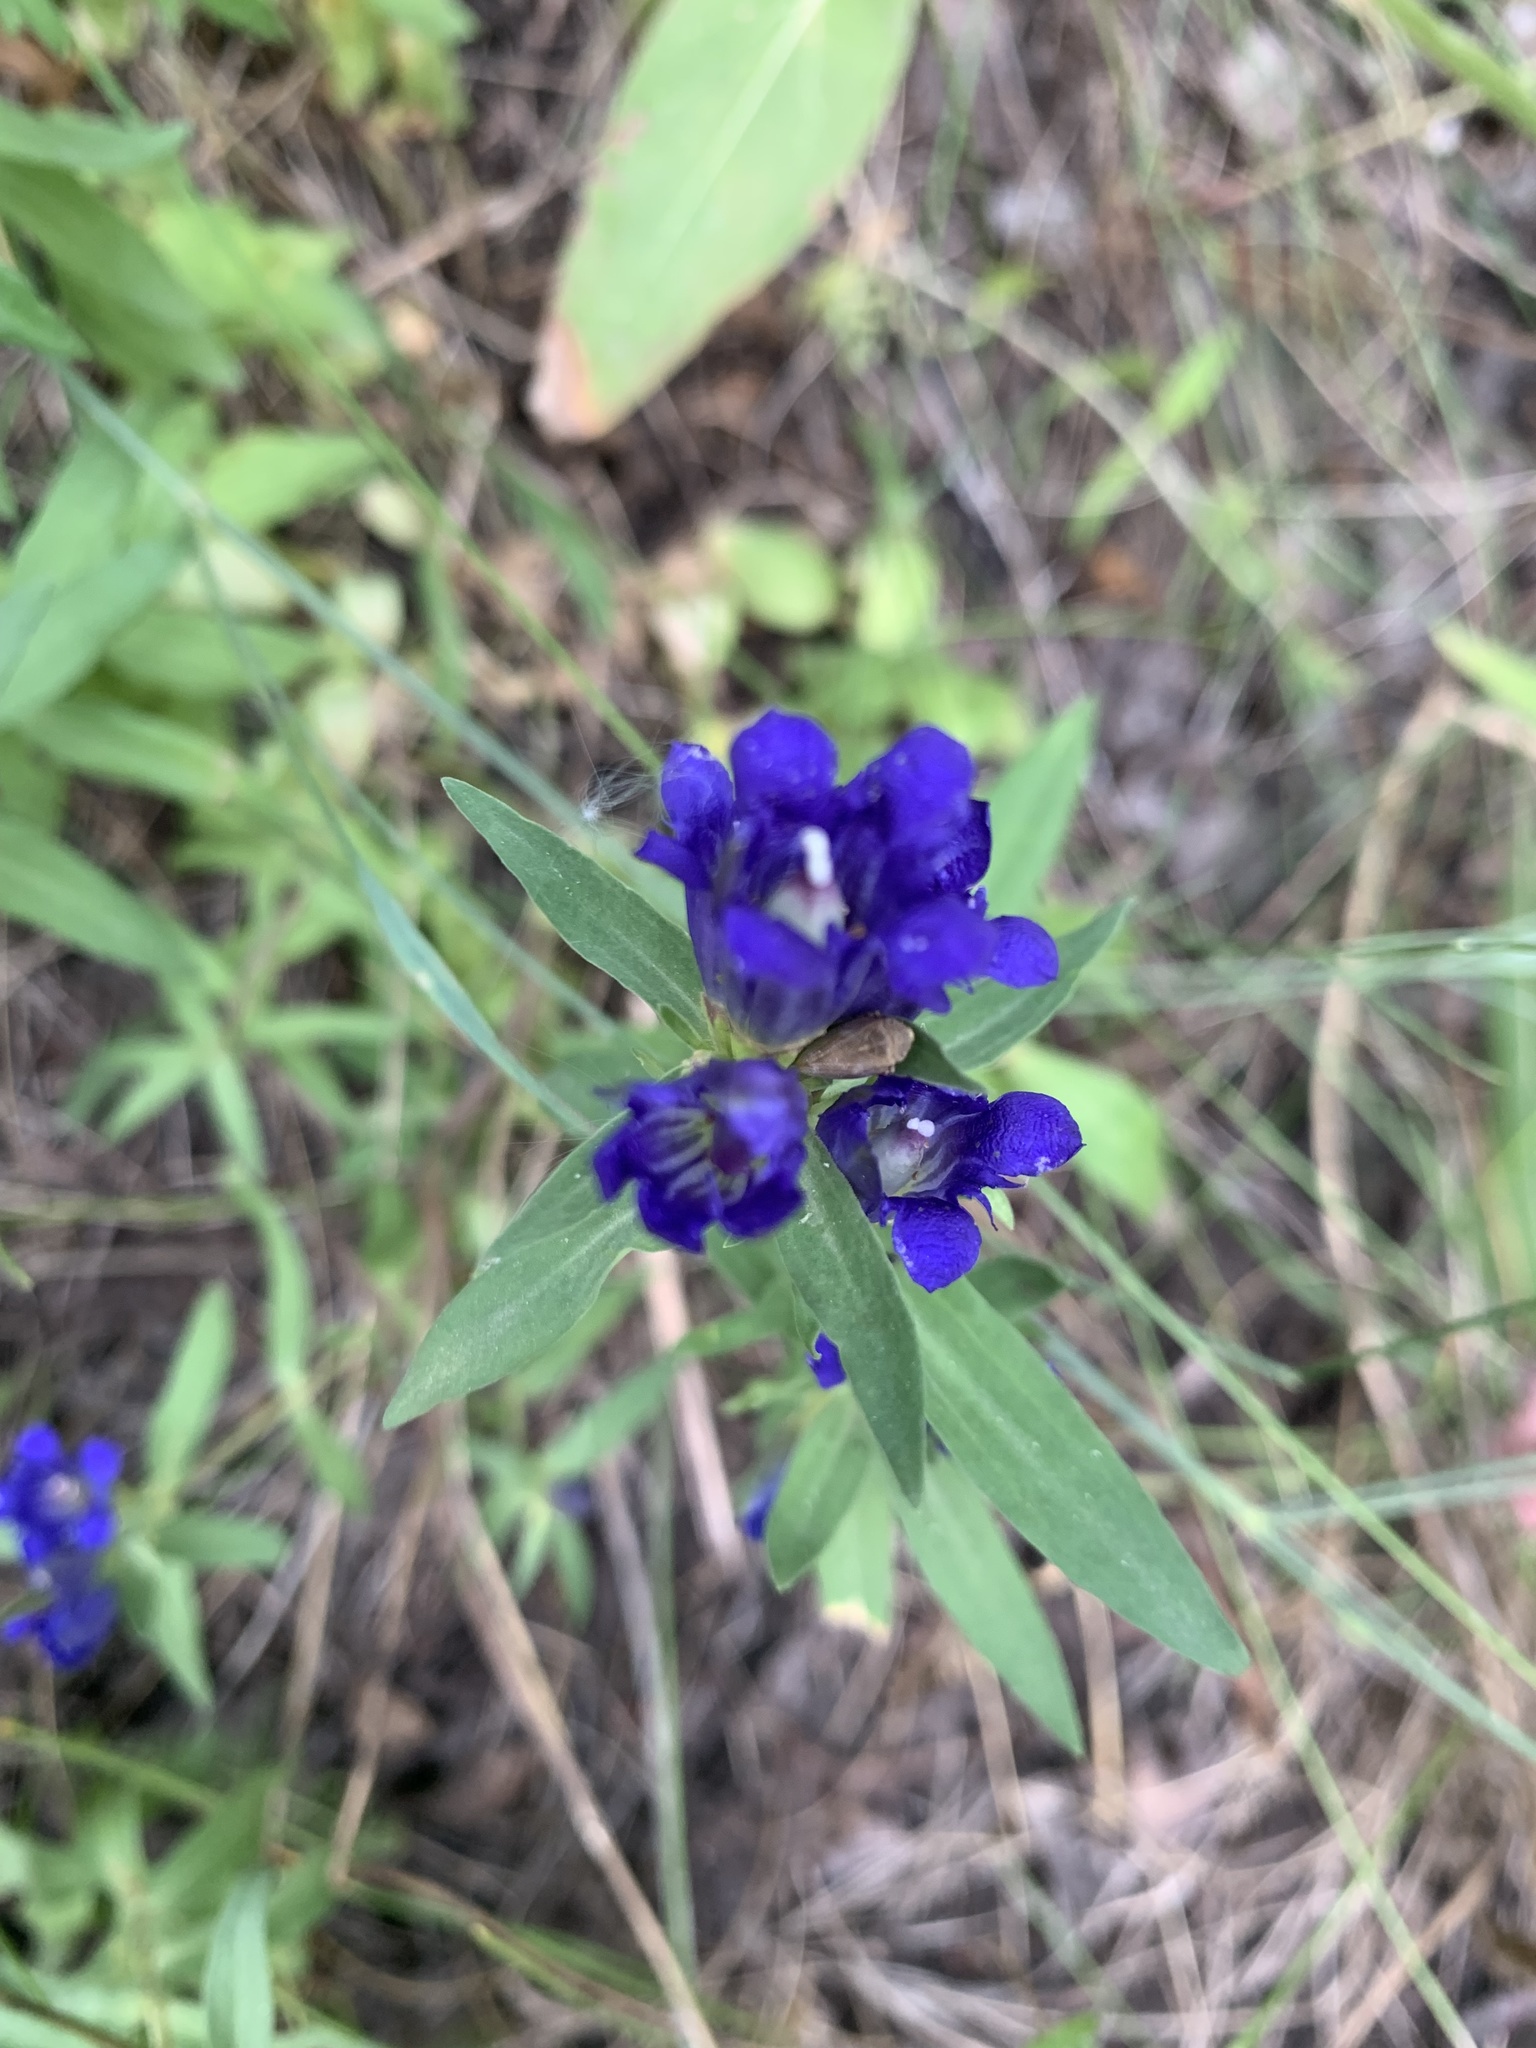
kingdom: Plantae
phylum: Tracheophyta
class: Magnoliopsida
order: Gentianales
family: Gentianaceae
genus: Gentiana
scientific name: Gentiana affinis
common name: Rocky mountain gentian
